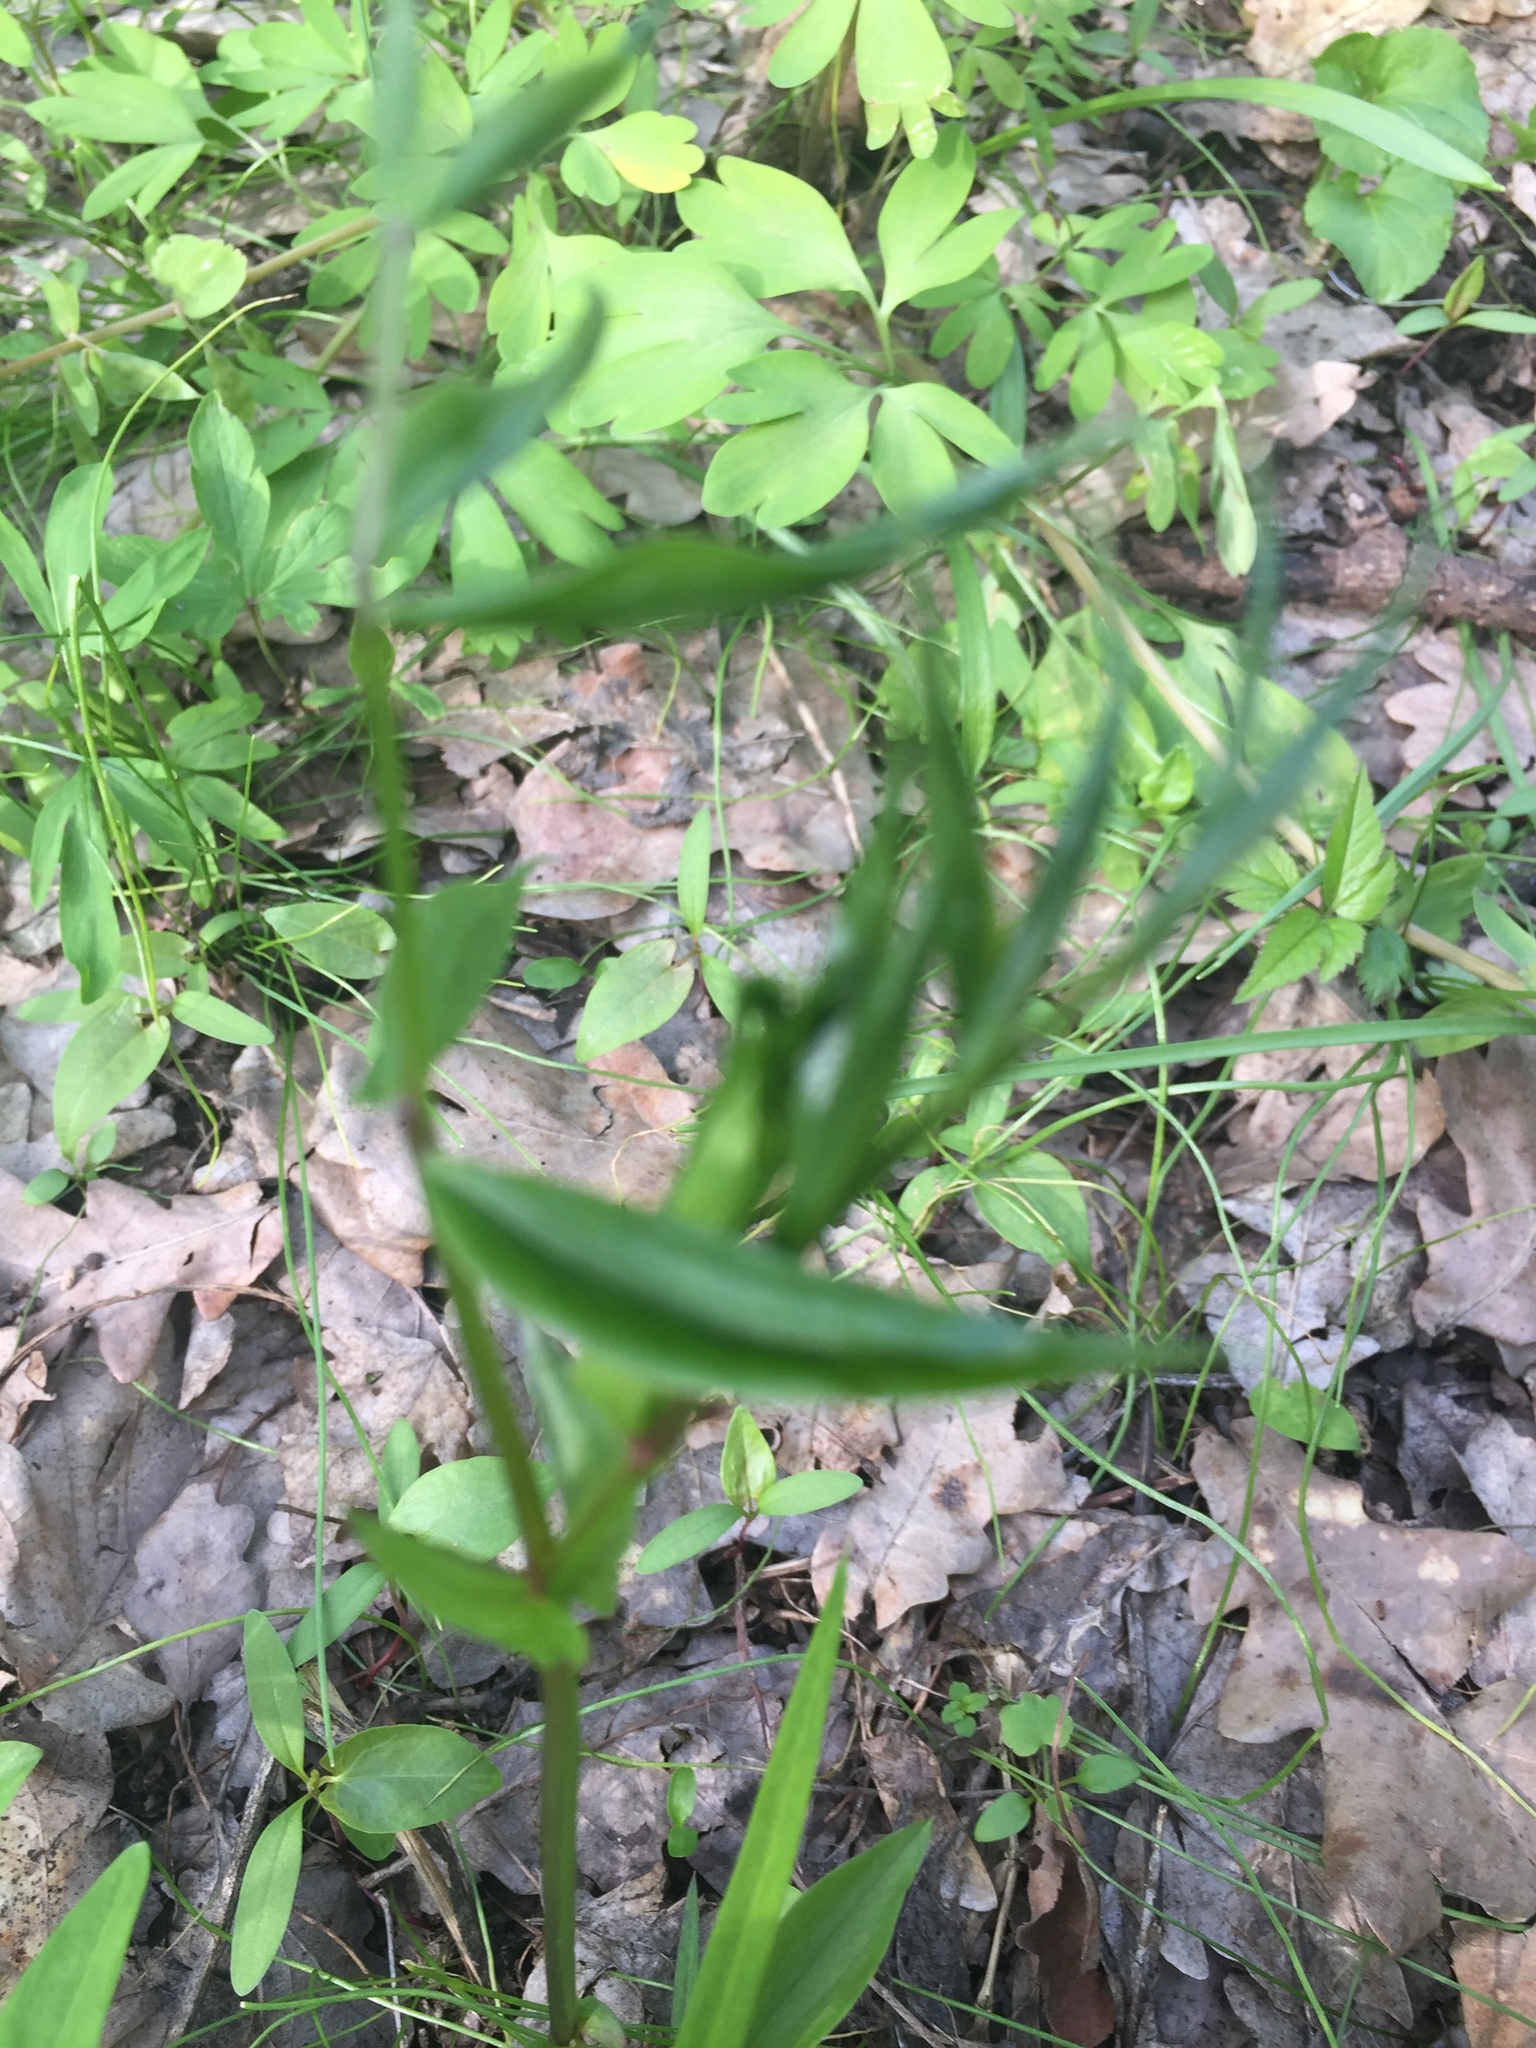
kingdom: Plantae
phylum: Tracheophyta
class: Magnoliopsida
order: Fabales
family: Fabaceae
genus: Lathyrus
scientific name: Lathyrus vernus
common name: Spring pea
